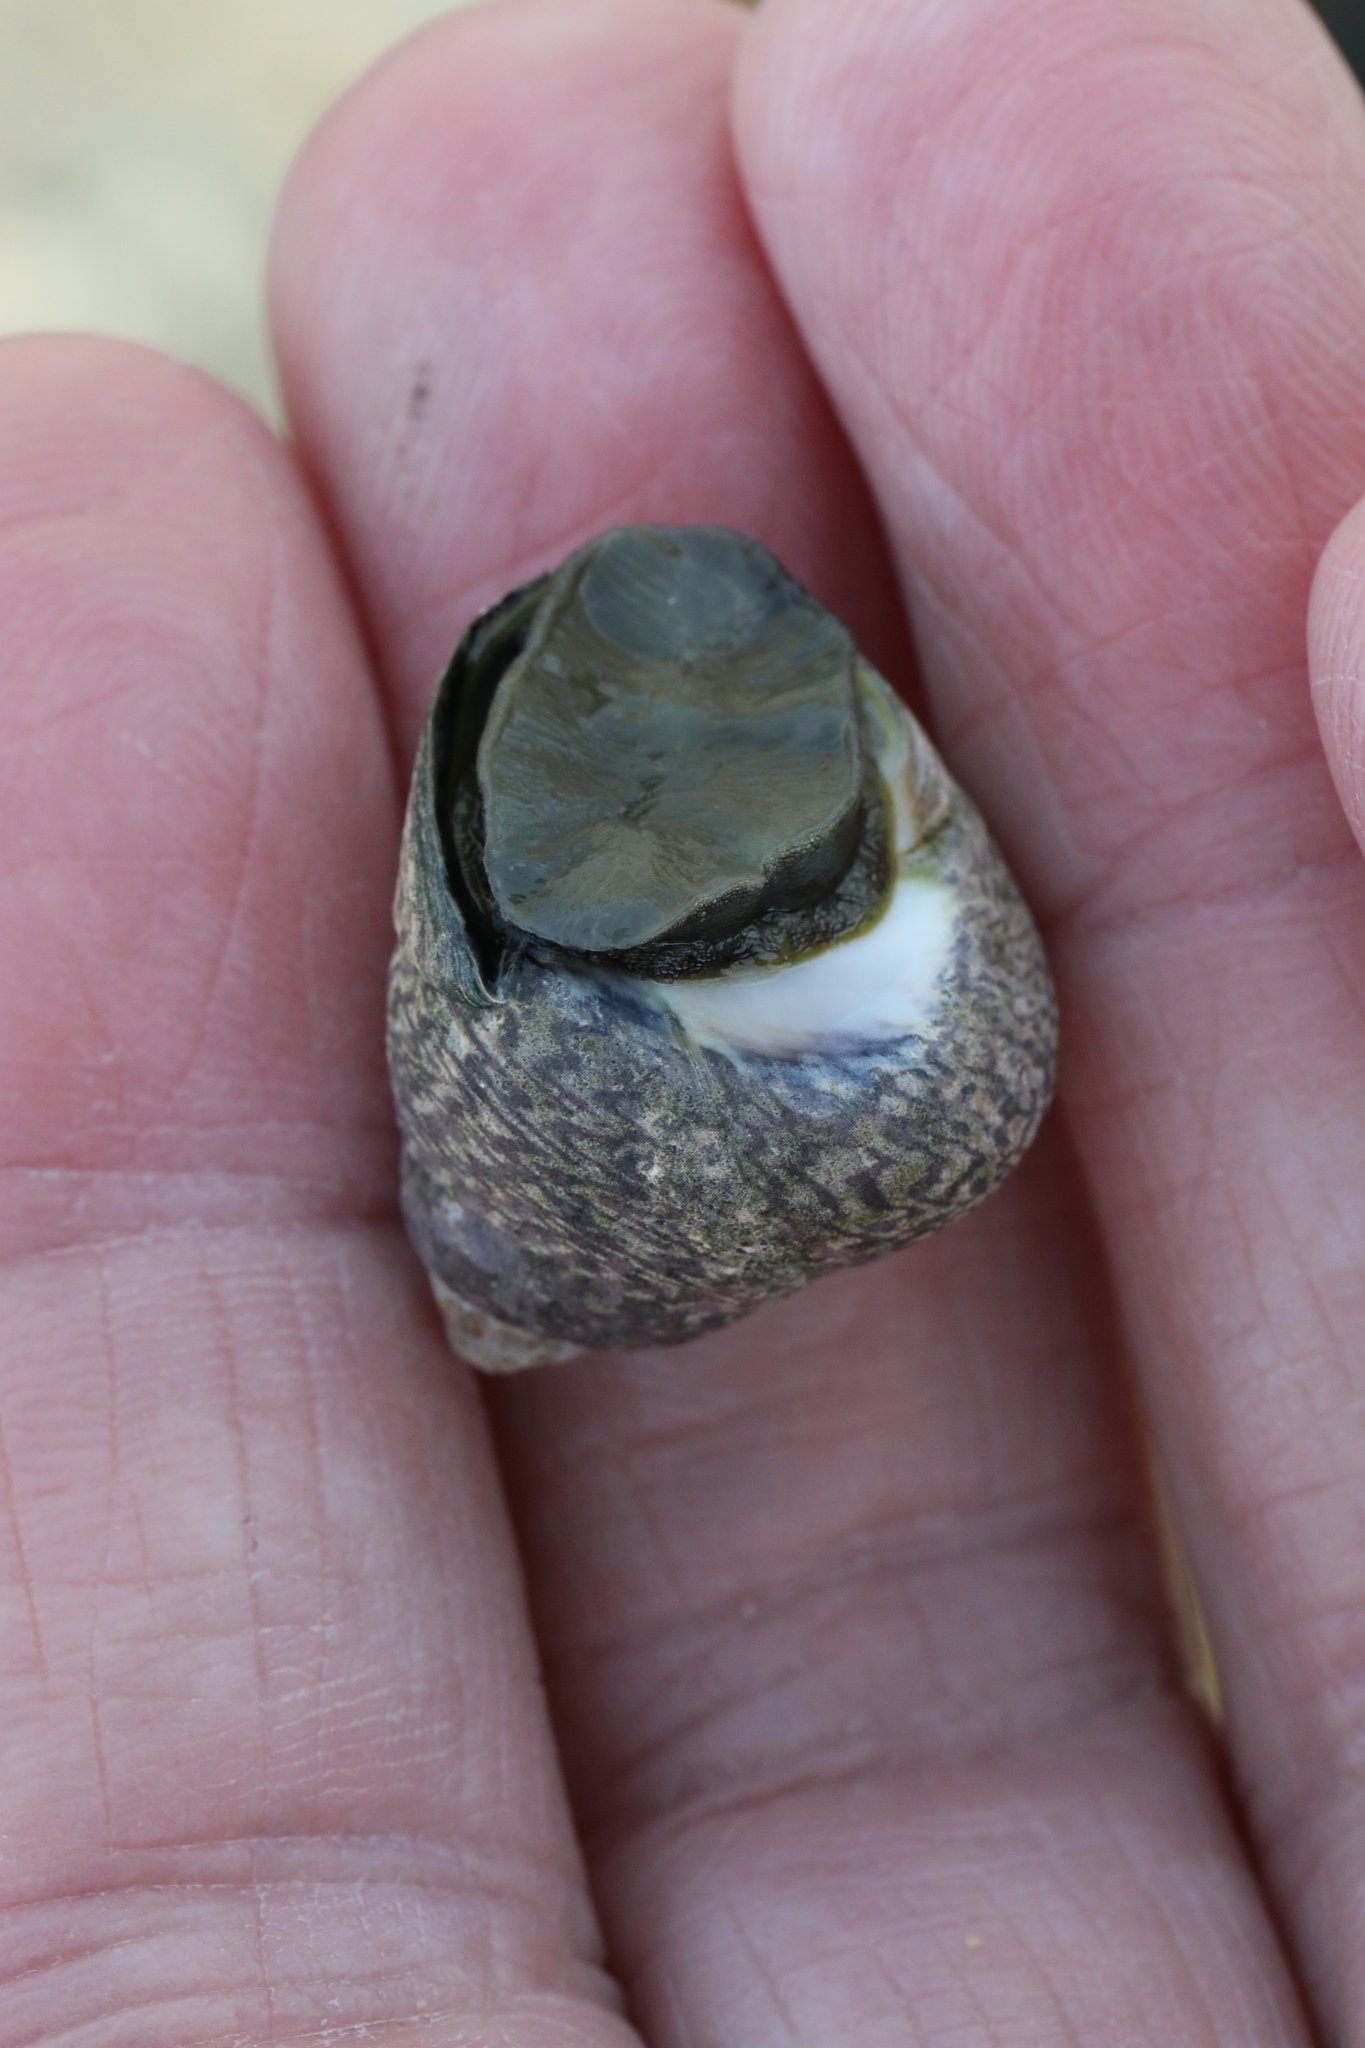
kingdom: Animalia
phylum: Mollusca
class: Gastropoda
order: Trochida
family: Trochidae
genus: Phorcus
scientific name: Phorcus lineatus
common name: Toothed top shell
